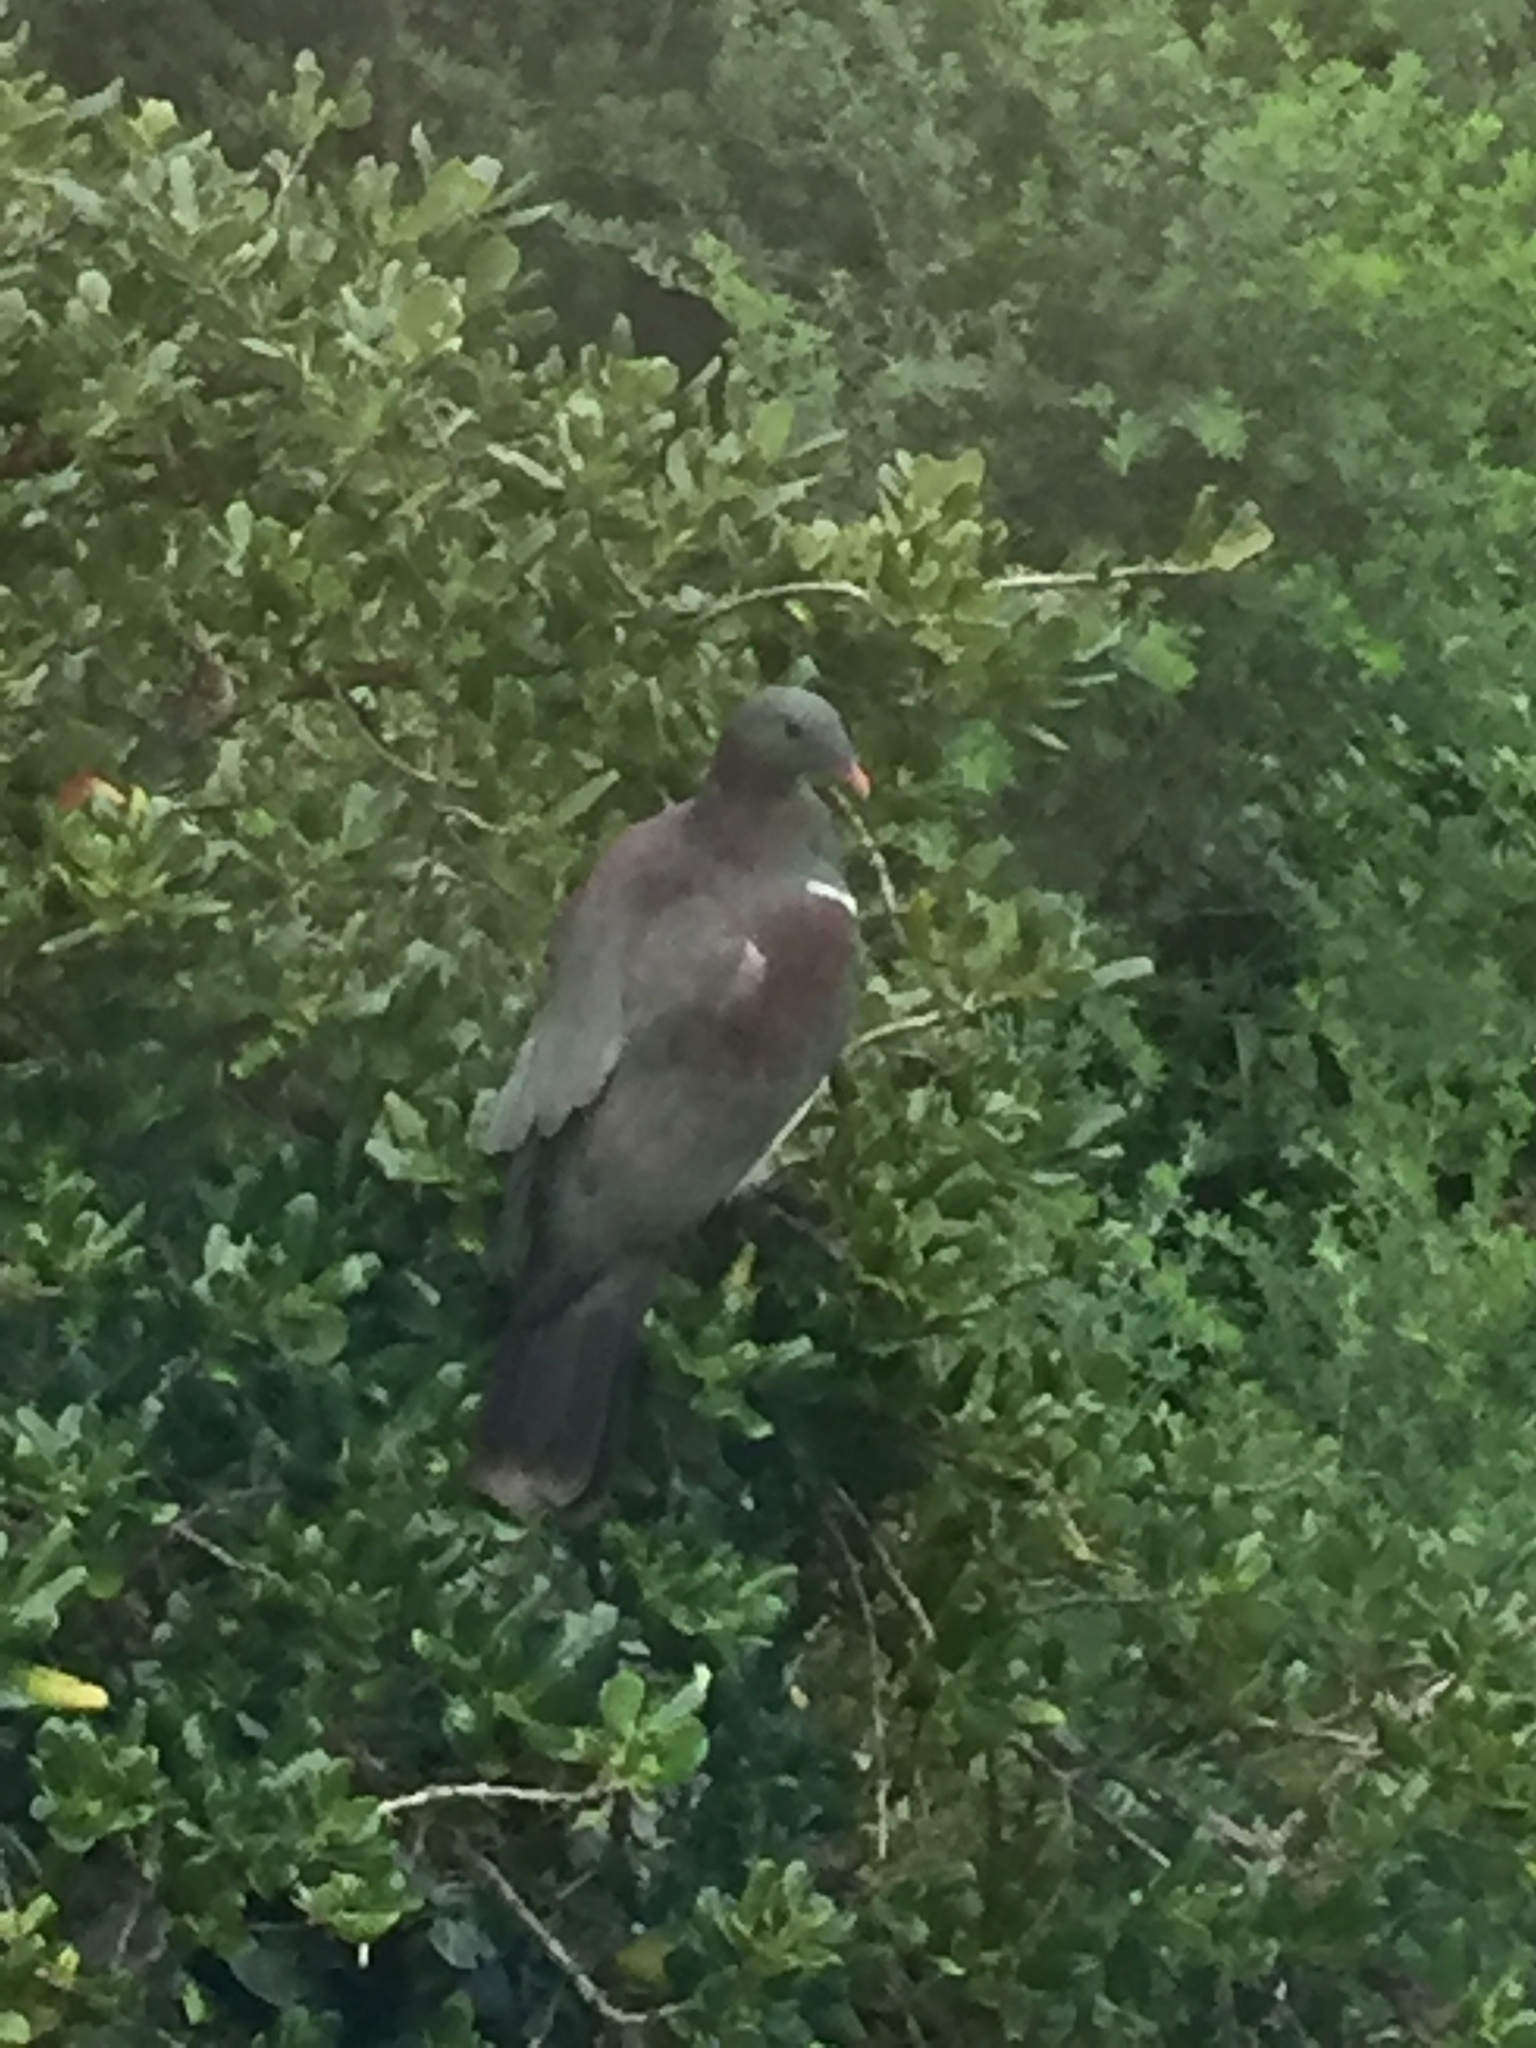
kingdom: Animalia
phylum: Chordata
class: Aves
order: Columbiformes
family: Columbidae
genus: Hemiphaga
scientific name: Hemiphaga novaeseelandiae
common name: New zealand pigeon
